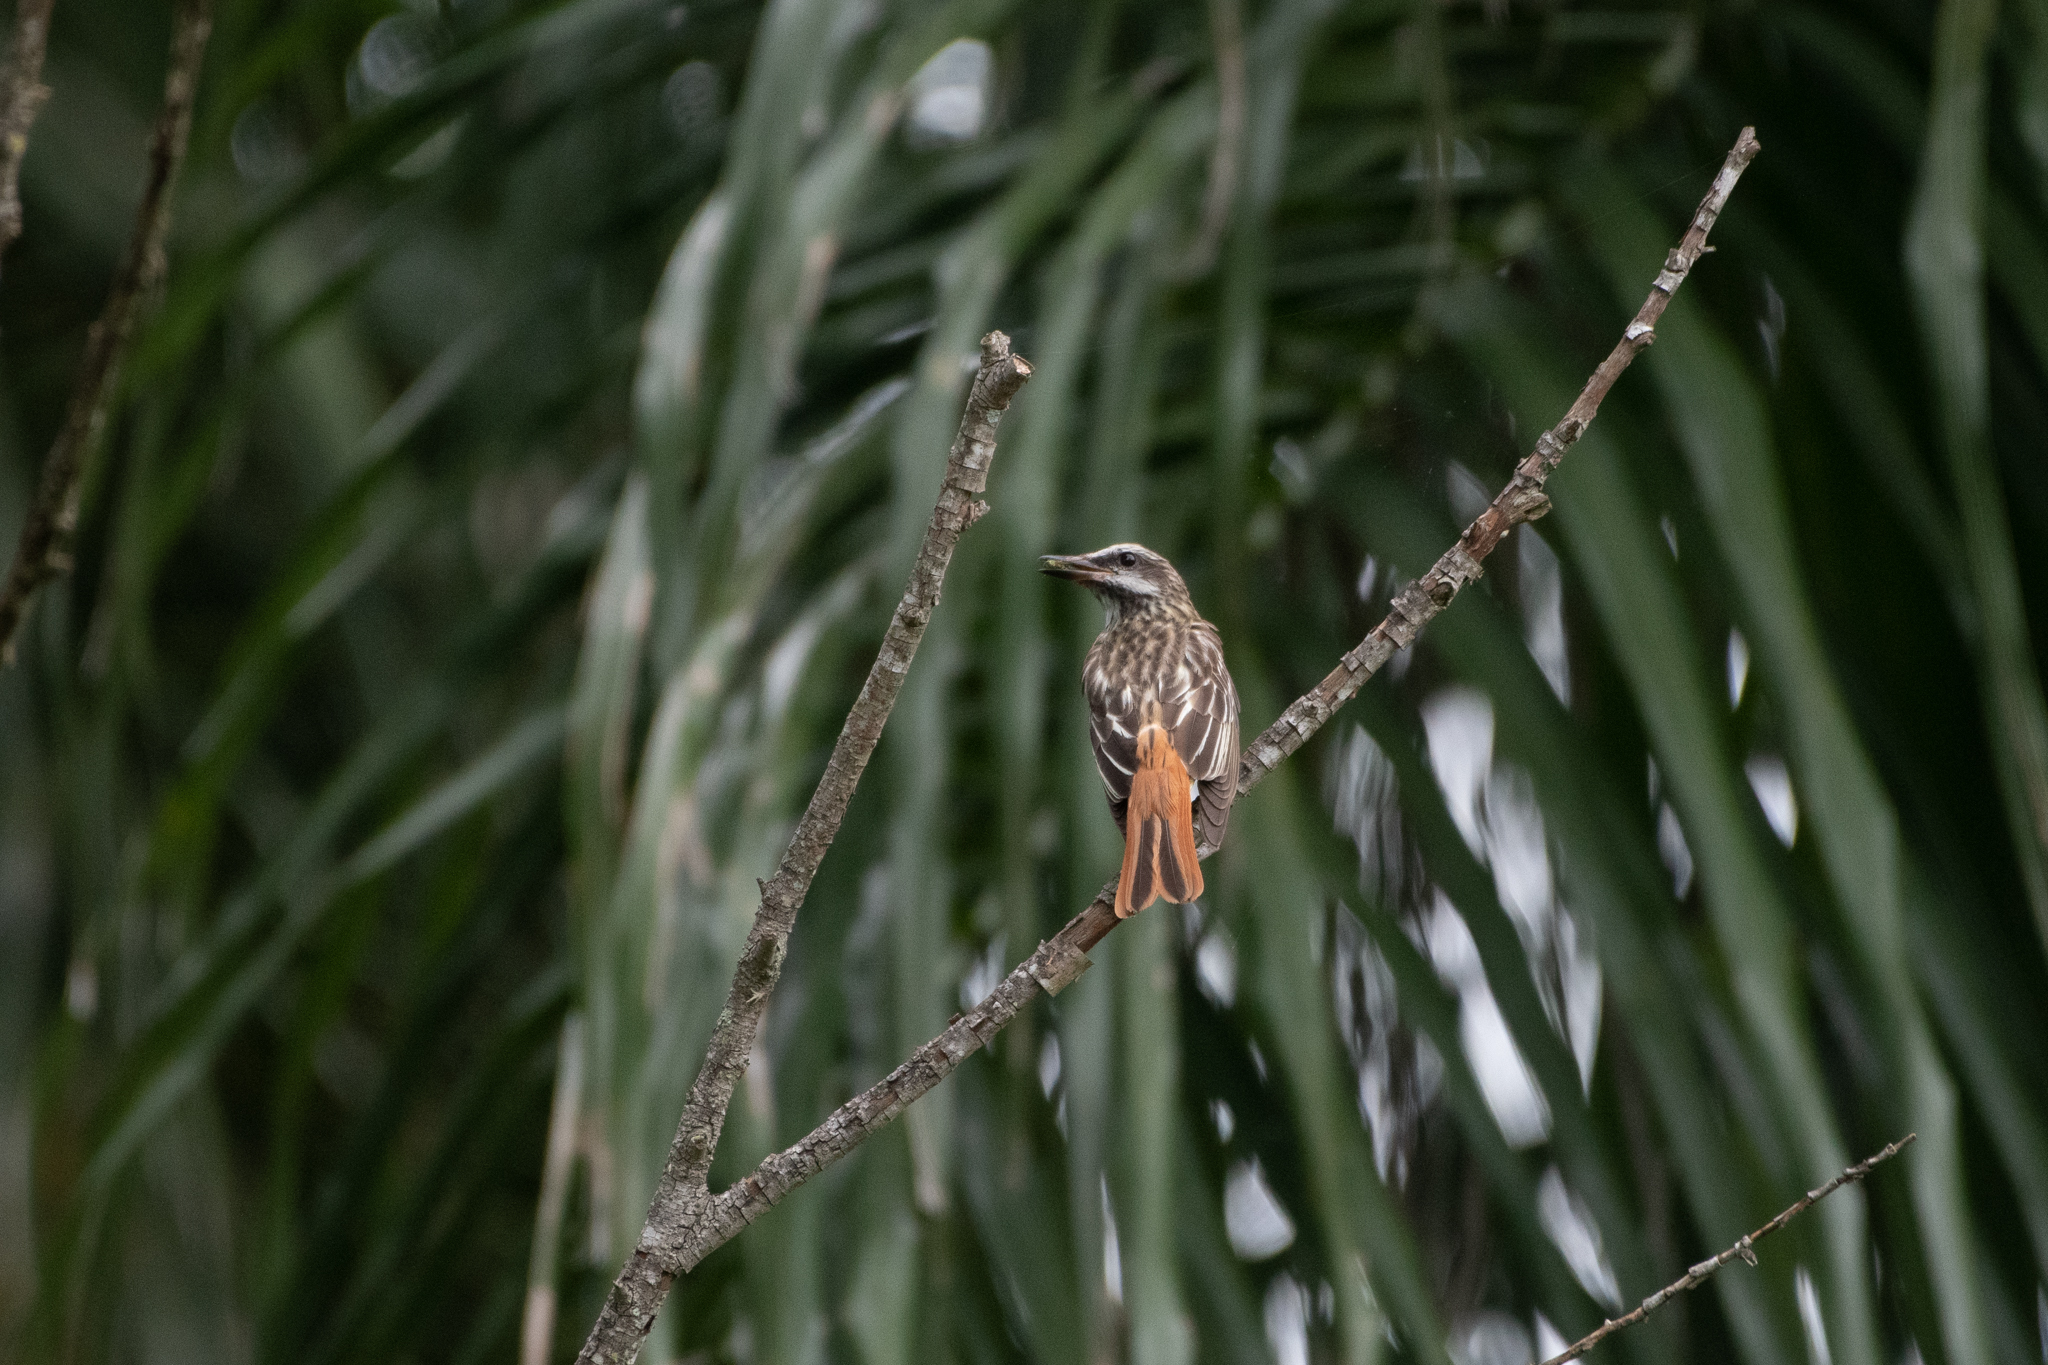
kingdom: Animalia
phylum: Chordata
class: Aves
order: Passeriformes
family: Tyrannidae
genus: Myiodynastes
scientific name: Myiodynastes luteiventris
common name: Sulphur-bellied flycatcher
